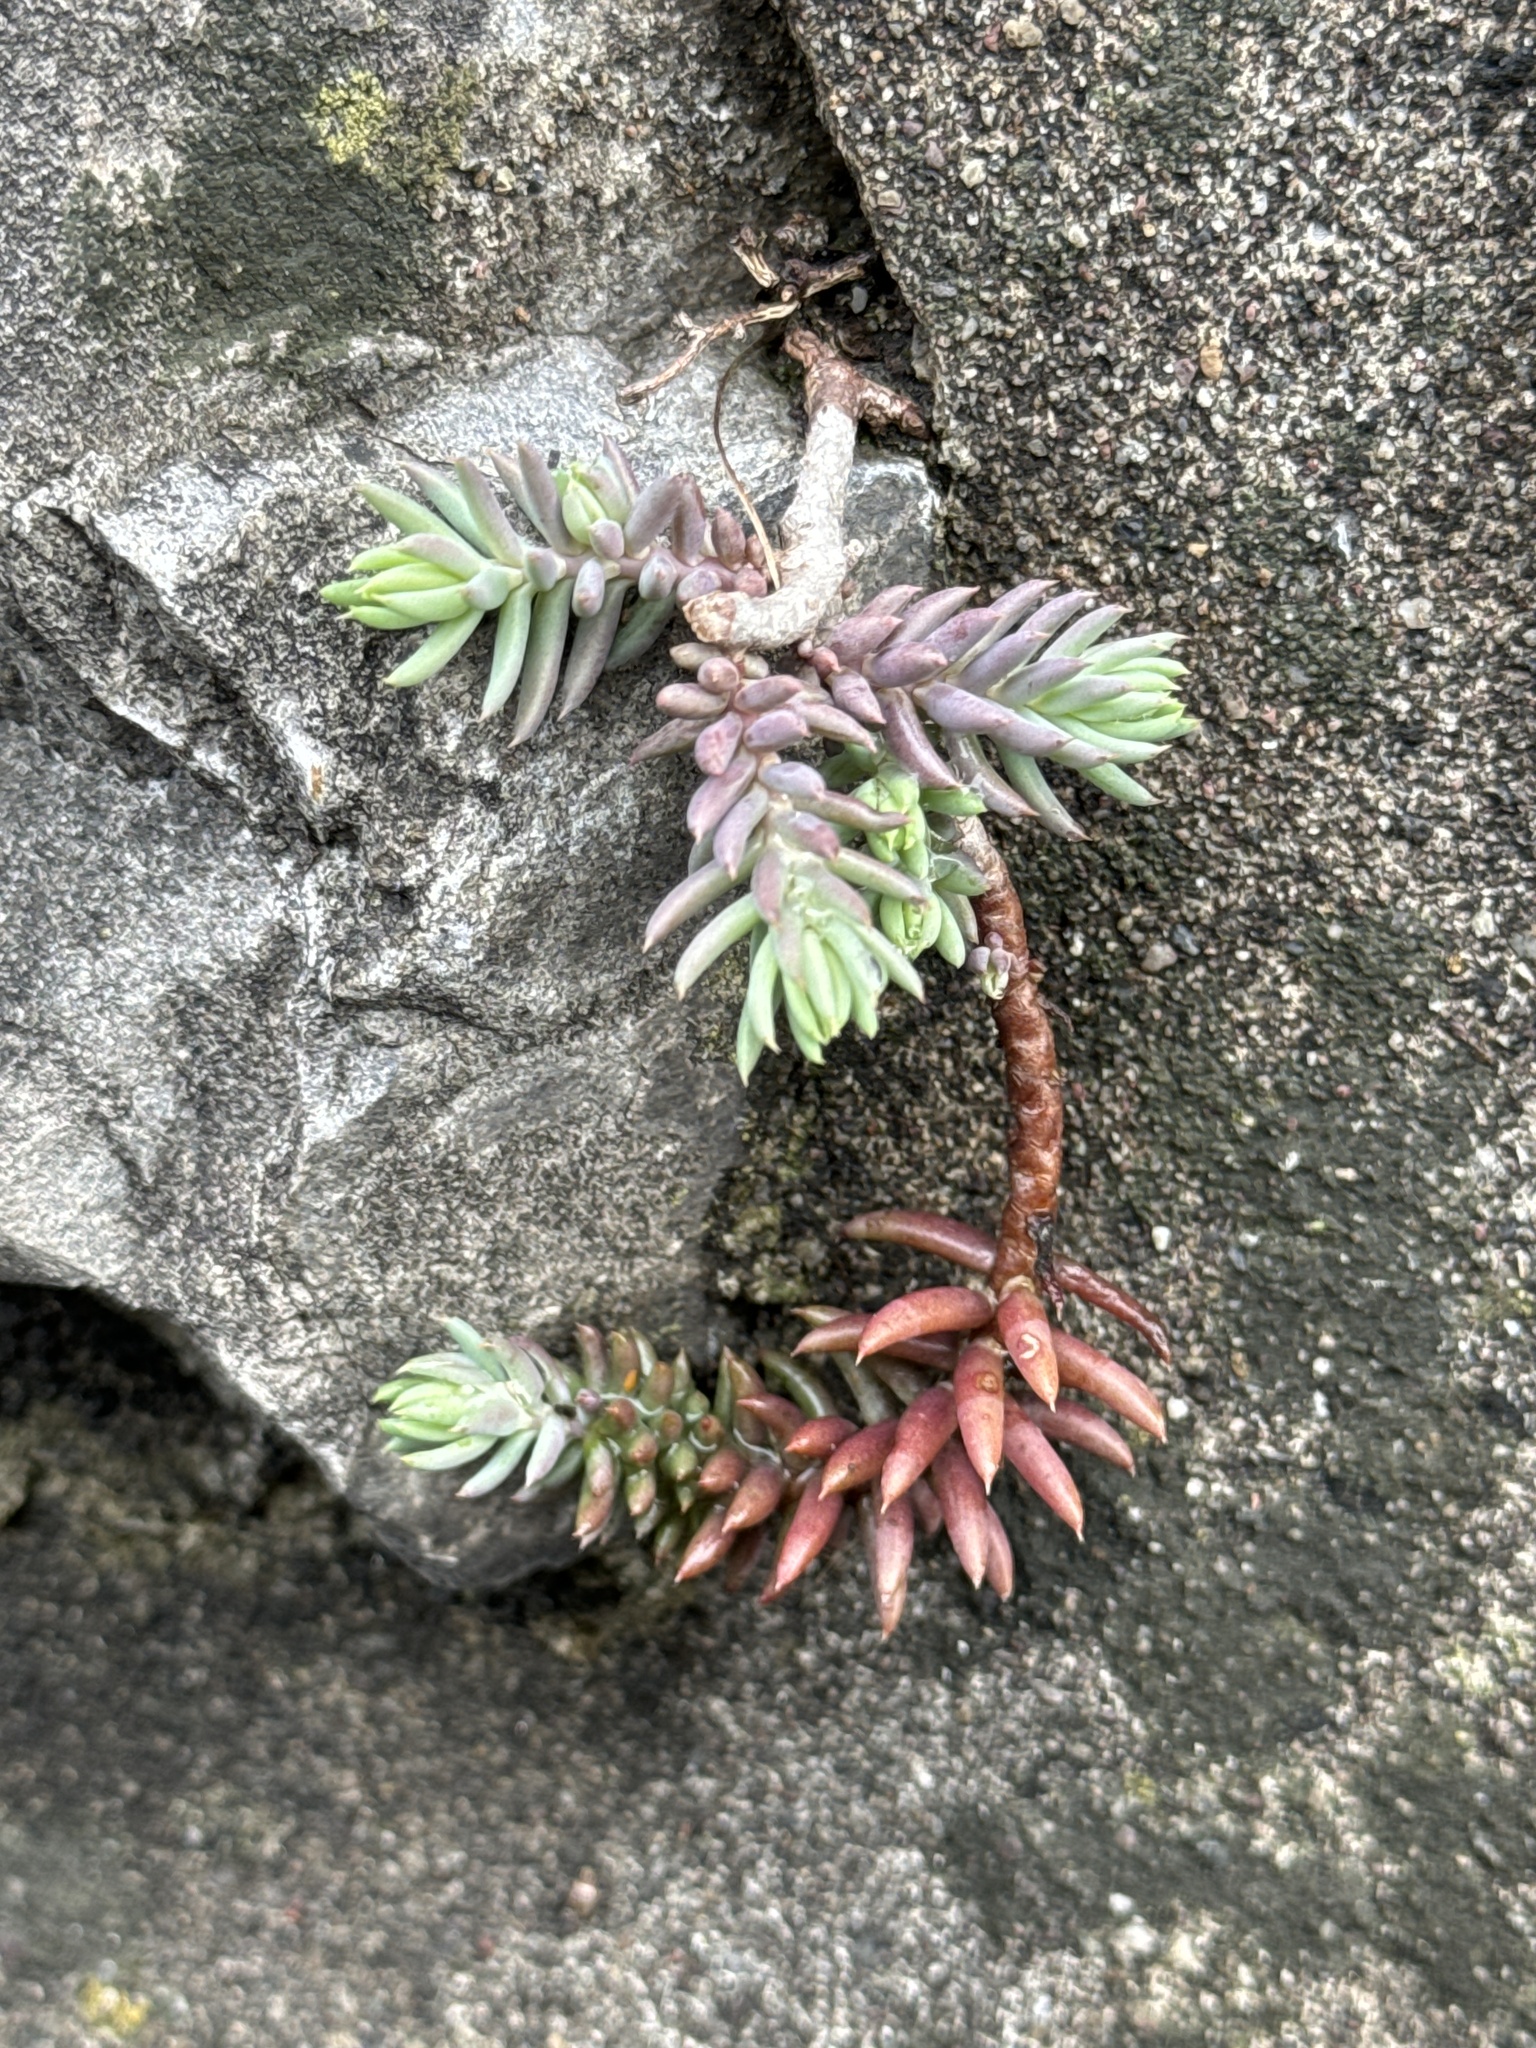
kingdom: Plantae
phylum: Tracheophyta
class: Magnoliopsida
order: Saxifragales
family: Crassulaceae
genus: Petrosedum
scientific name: Petrosedum
